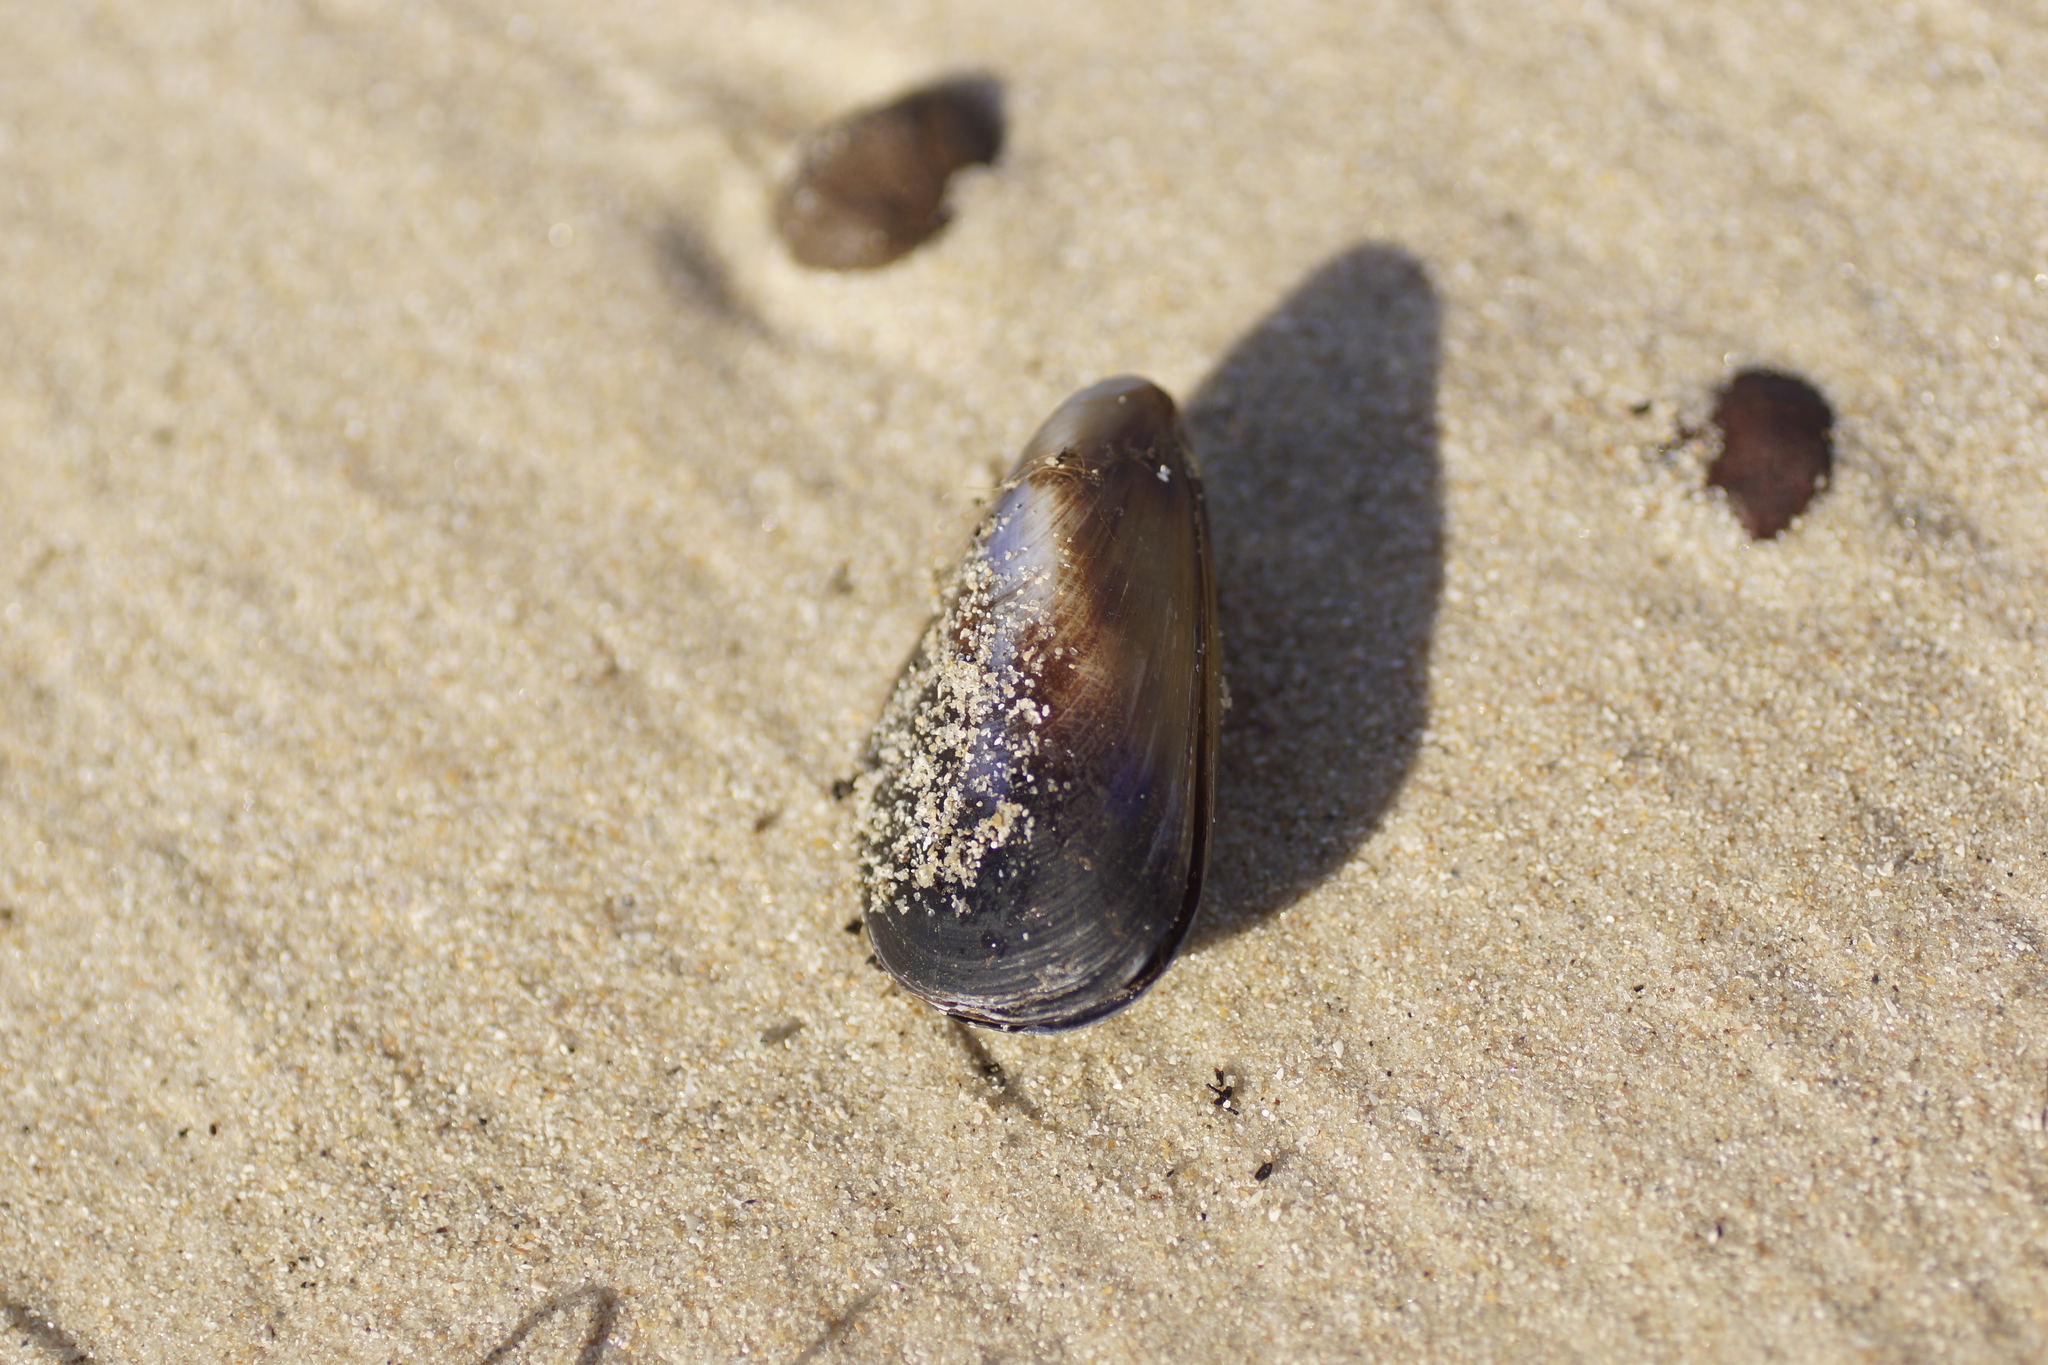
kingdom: Animalia
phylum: Mollusca
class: Bivalvia
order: Mytilida
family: Mytilidae
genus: Mytilus
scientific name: Mytilus
